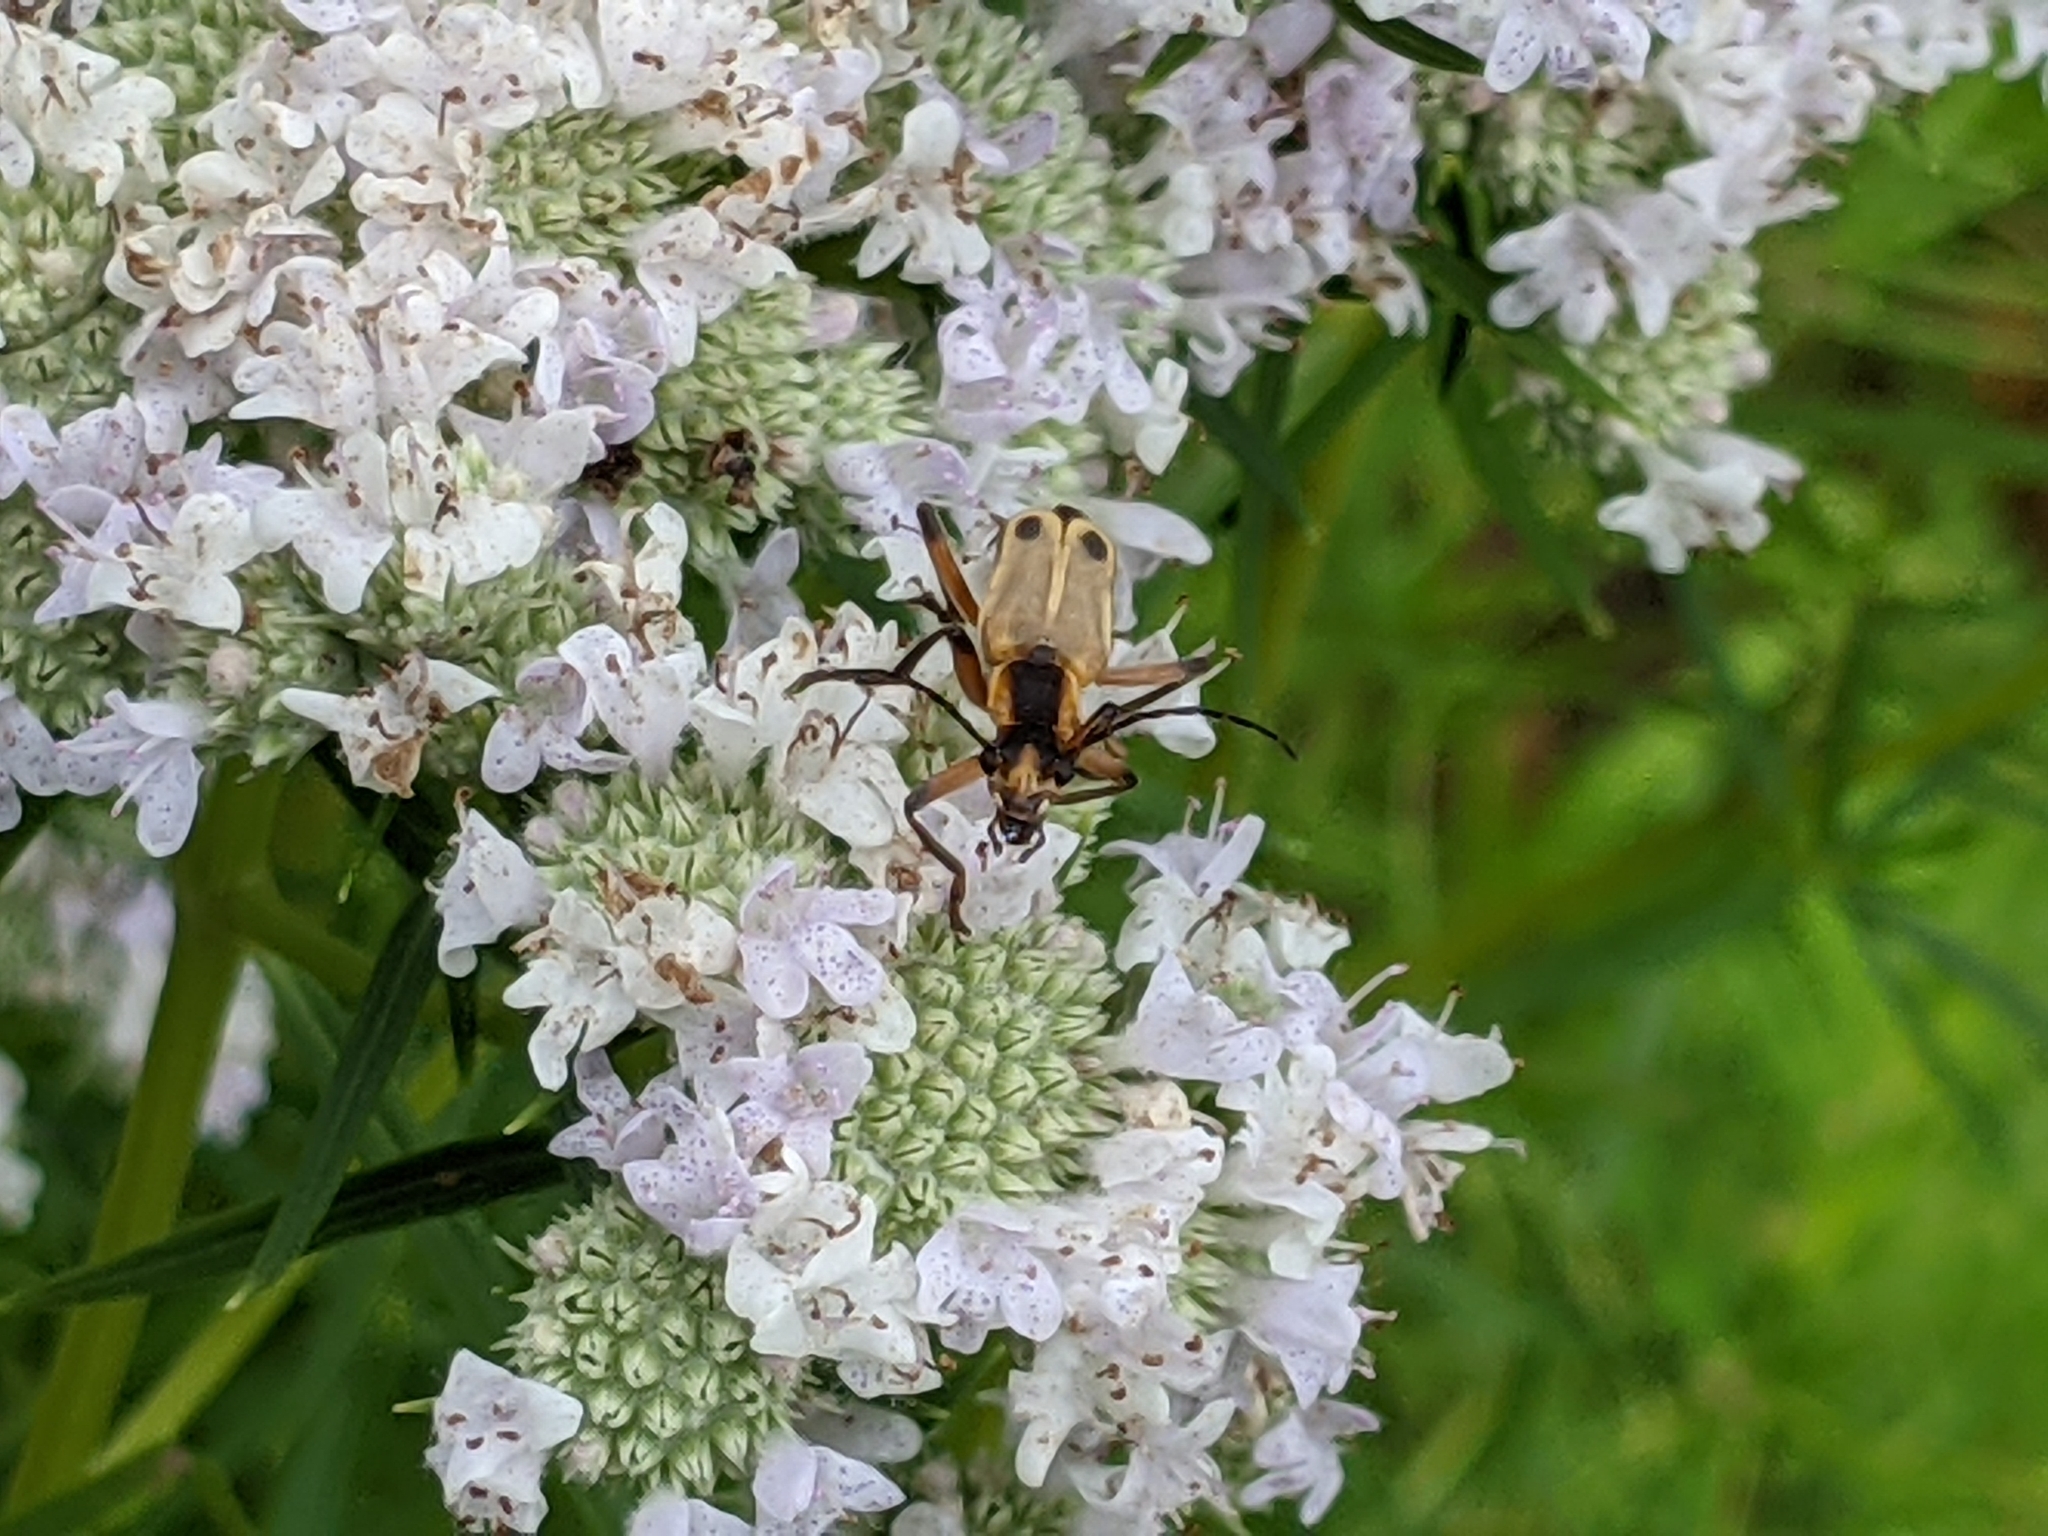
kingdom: Animalia
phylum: Arthropoda
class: Insecta
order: Coleoptera
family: Cantharidae
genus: Chauliognathus
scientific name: Chauliognathus marginatus
